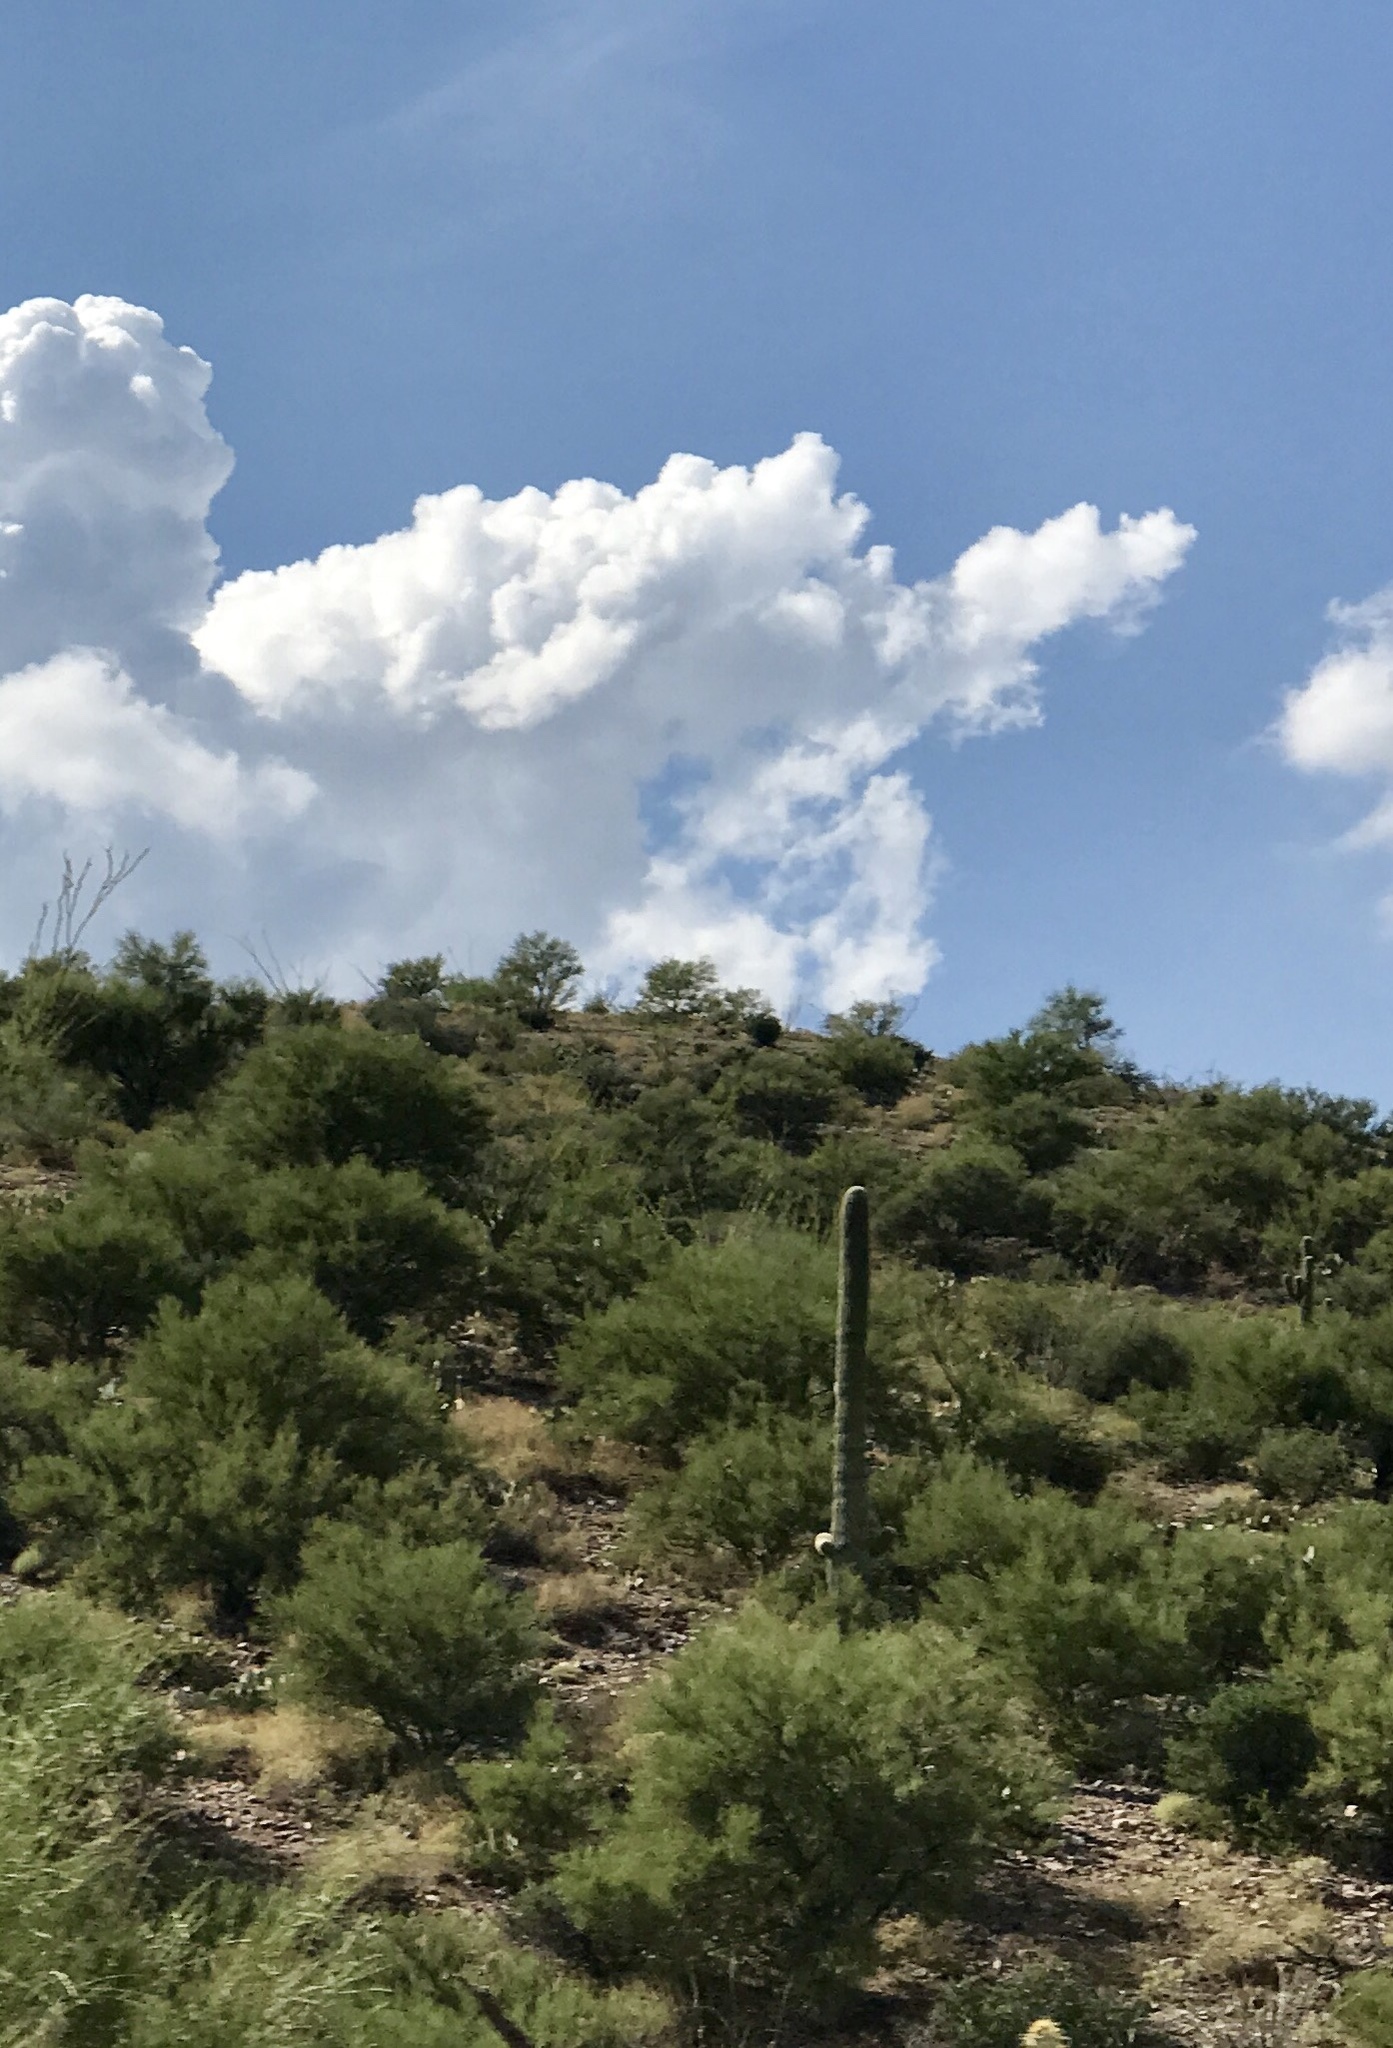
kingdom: Plantae
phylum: Tracheophyta
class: Magnoliopsida
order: Caryophyllales
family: Cactaceae
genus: Carnegiea
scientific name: Carnegiea gigantea
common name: Saguaro
